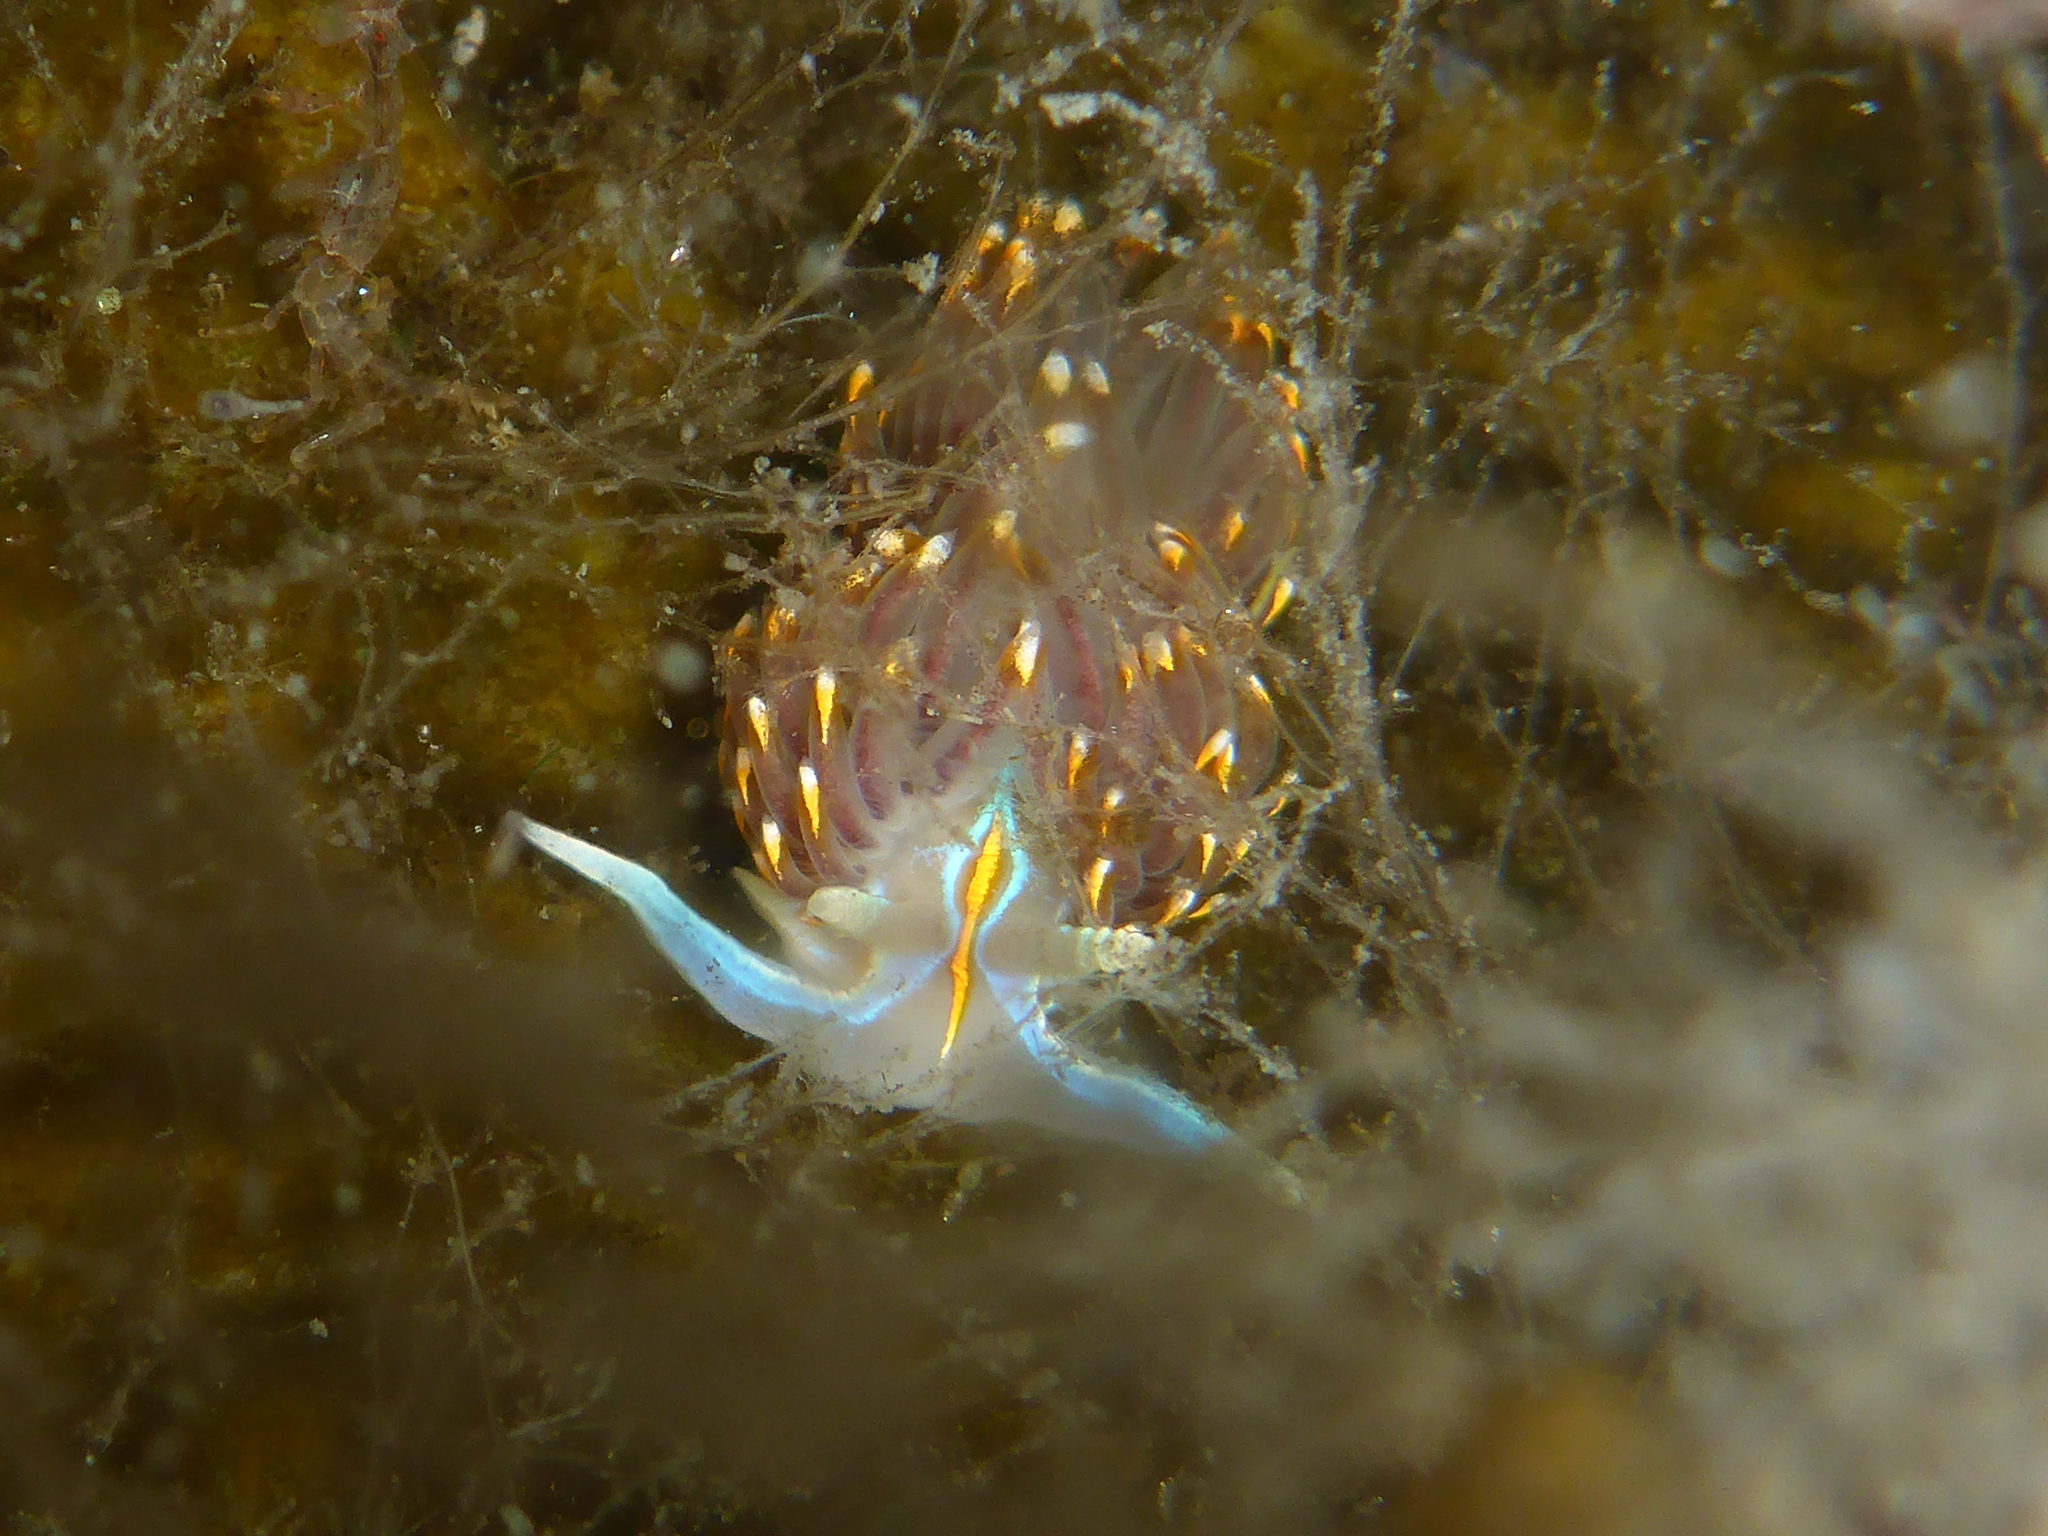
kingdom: Animalia
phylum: Mollusca
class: Gastropoda
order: Nudibranchia
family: Myrrhinidae
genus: Hermissenda
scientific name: Hermissenda opalescens
